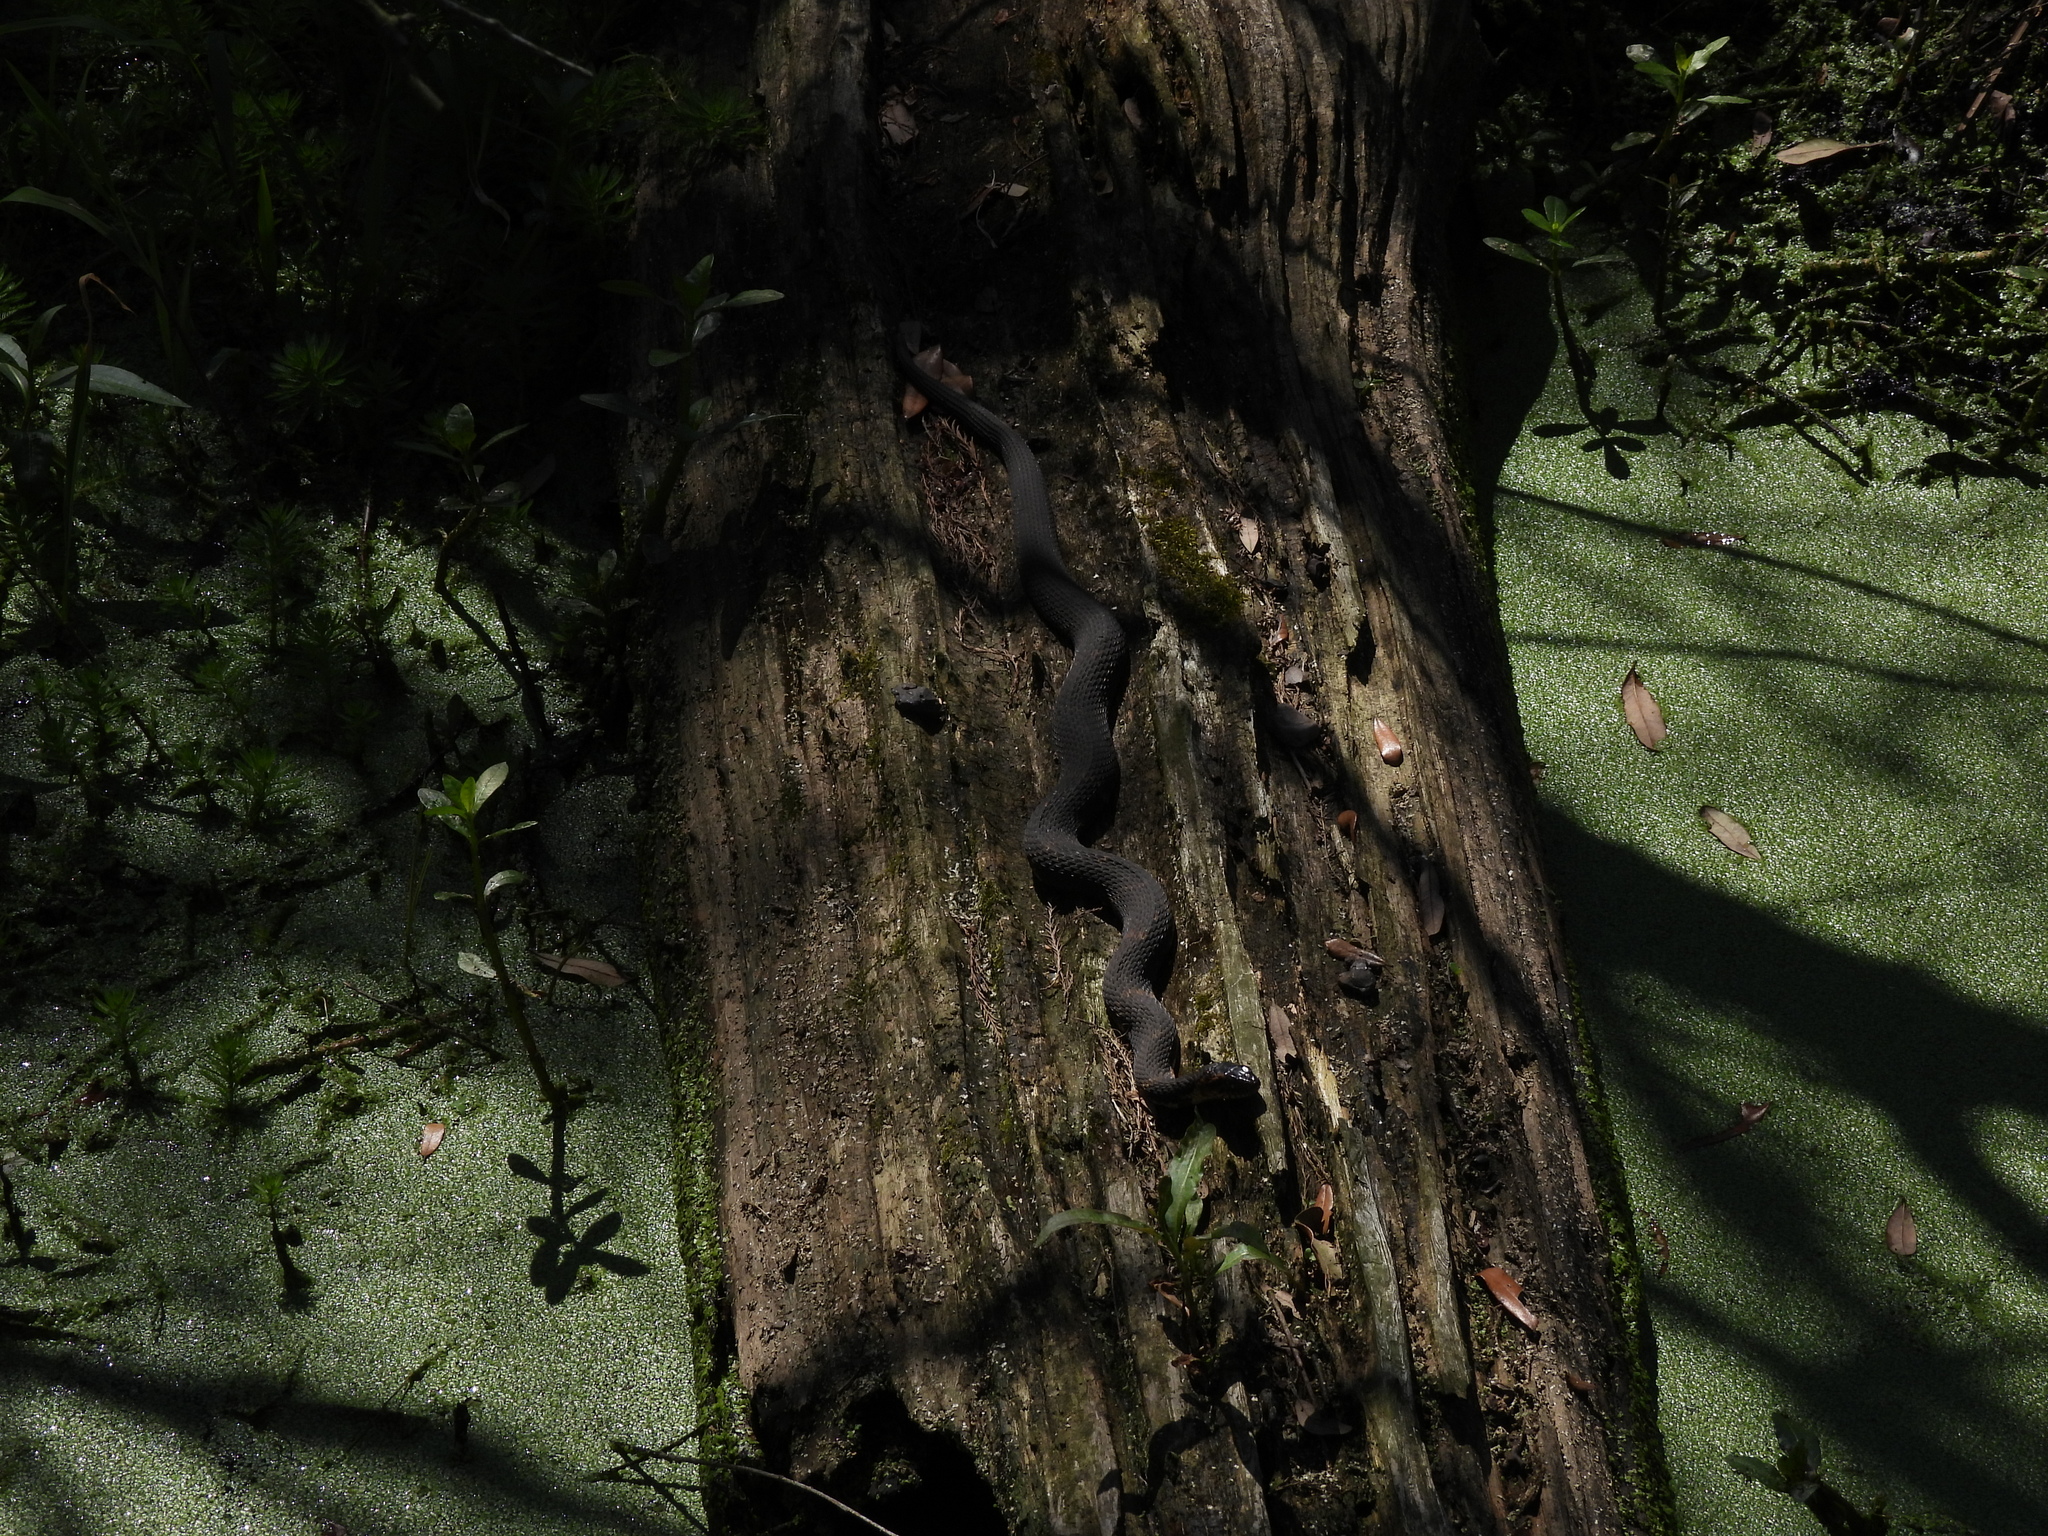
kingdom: Animalia
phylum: Chordata
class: Squamata
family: Colubridae
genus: Nerodia
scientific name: Nerodia fasciata
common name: Southern water snake
